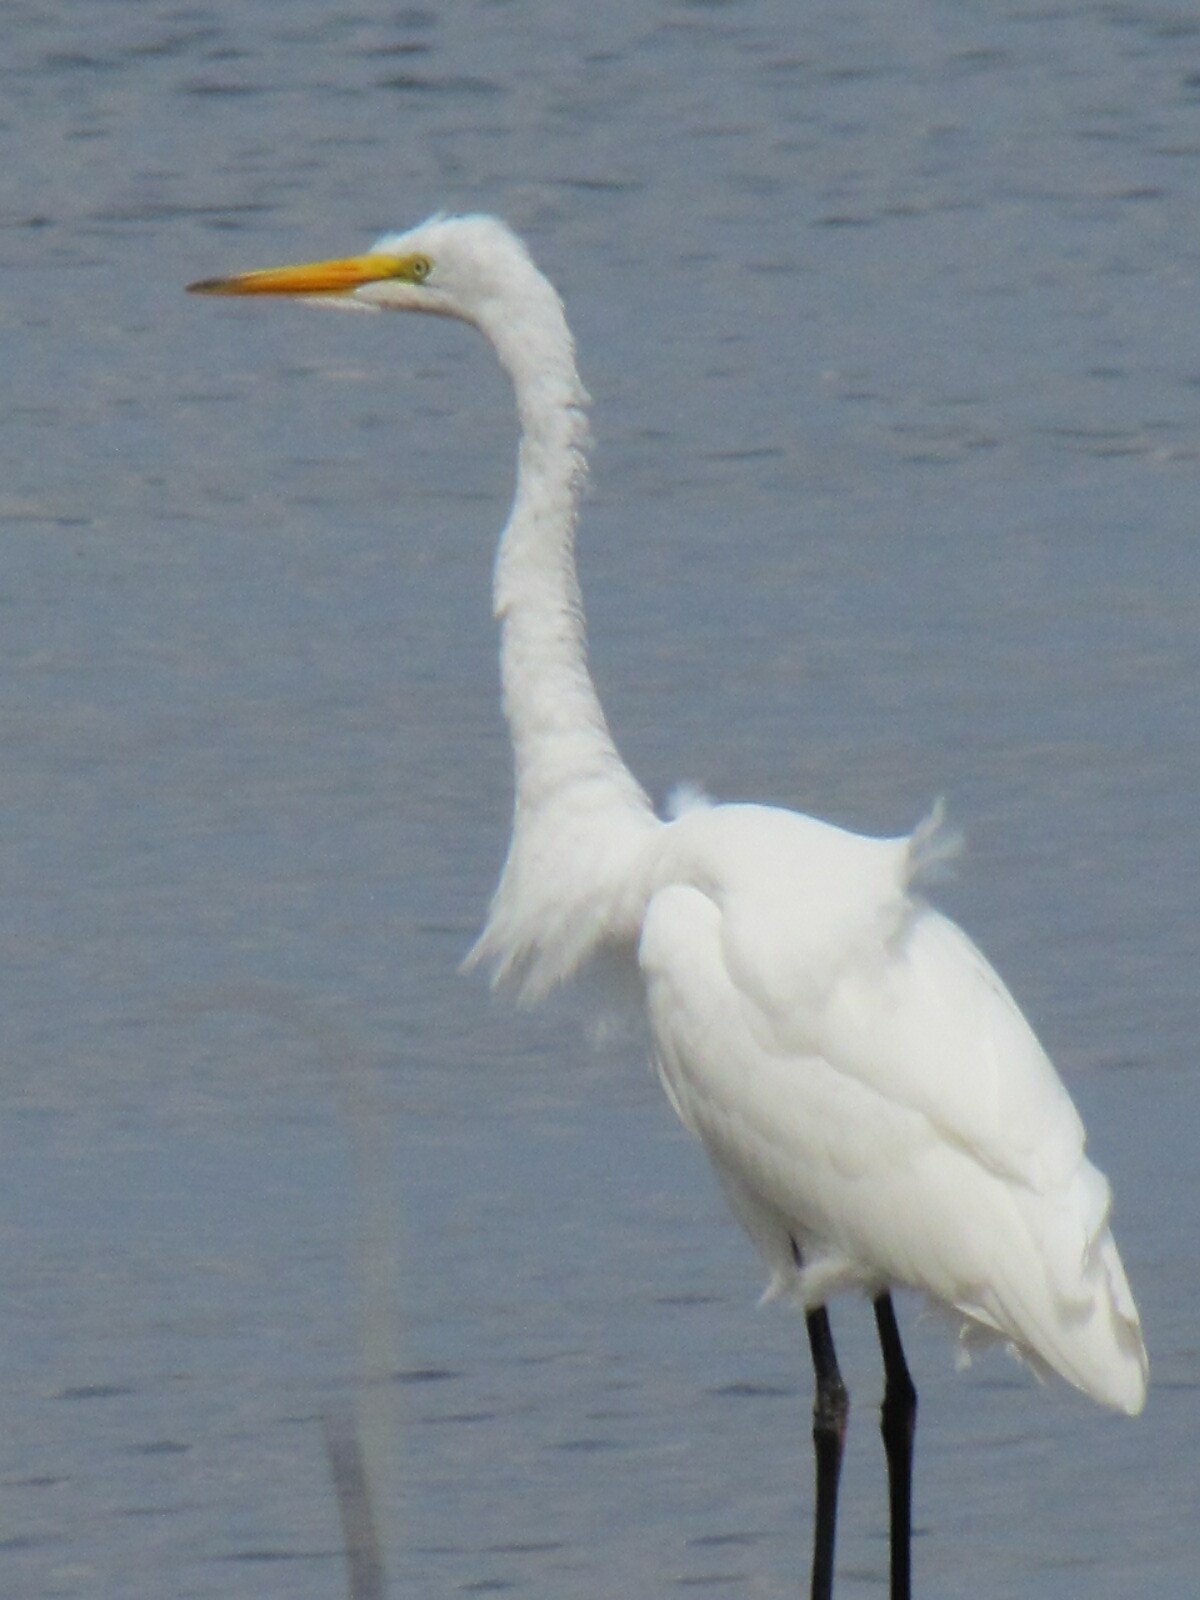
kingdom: Animalia
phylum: Chordata
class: Aves
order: Pelecaniformes
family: Ardeidae
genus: Ardea
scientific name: Ardea alba
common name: Great egret
